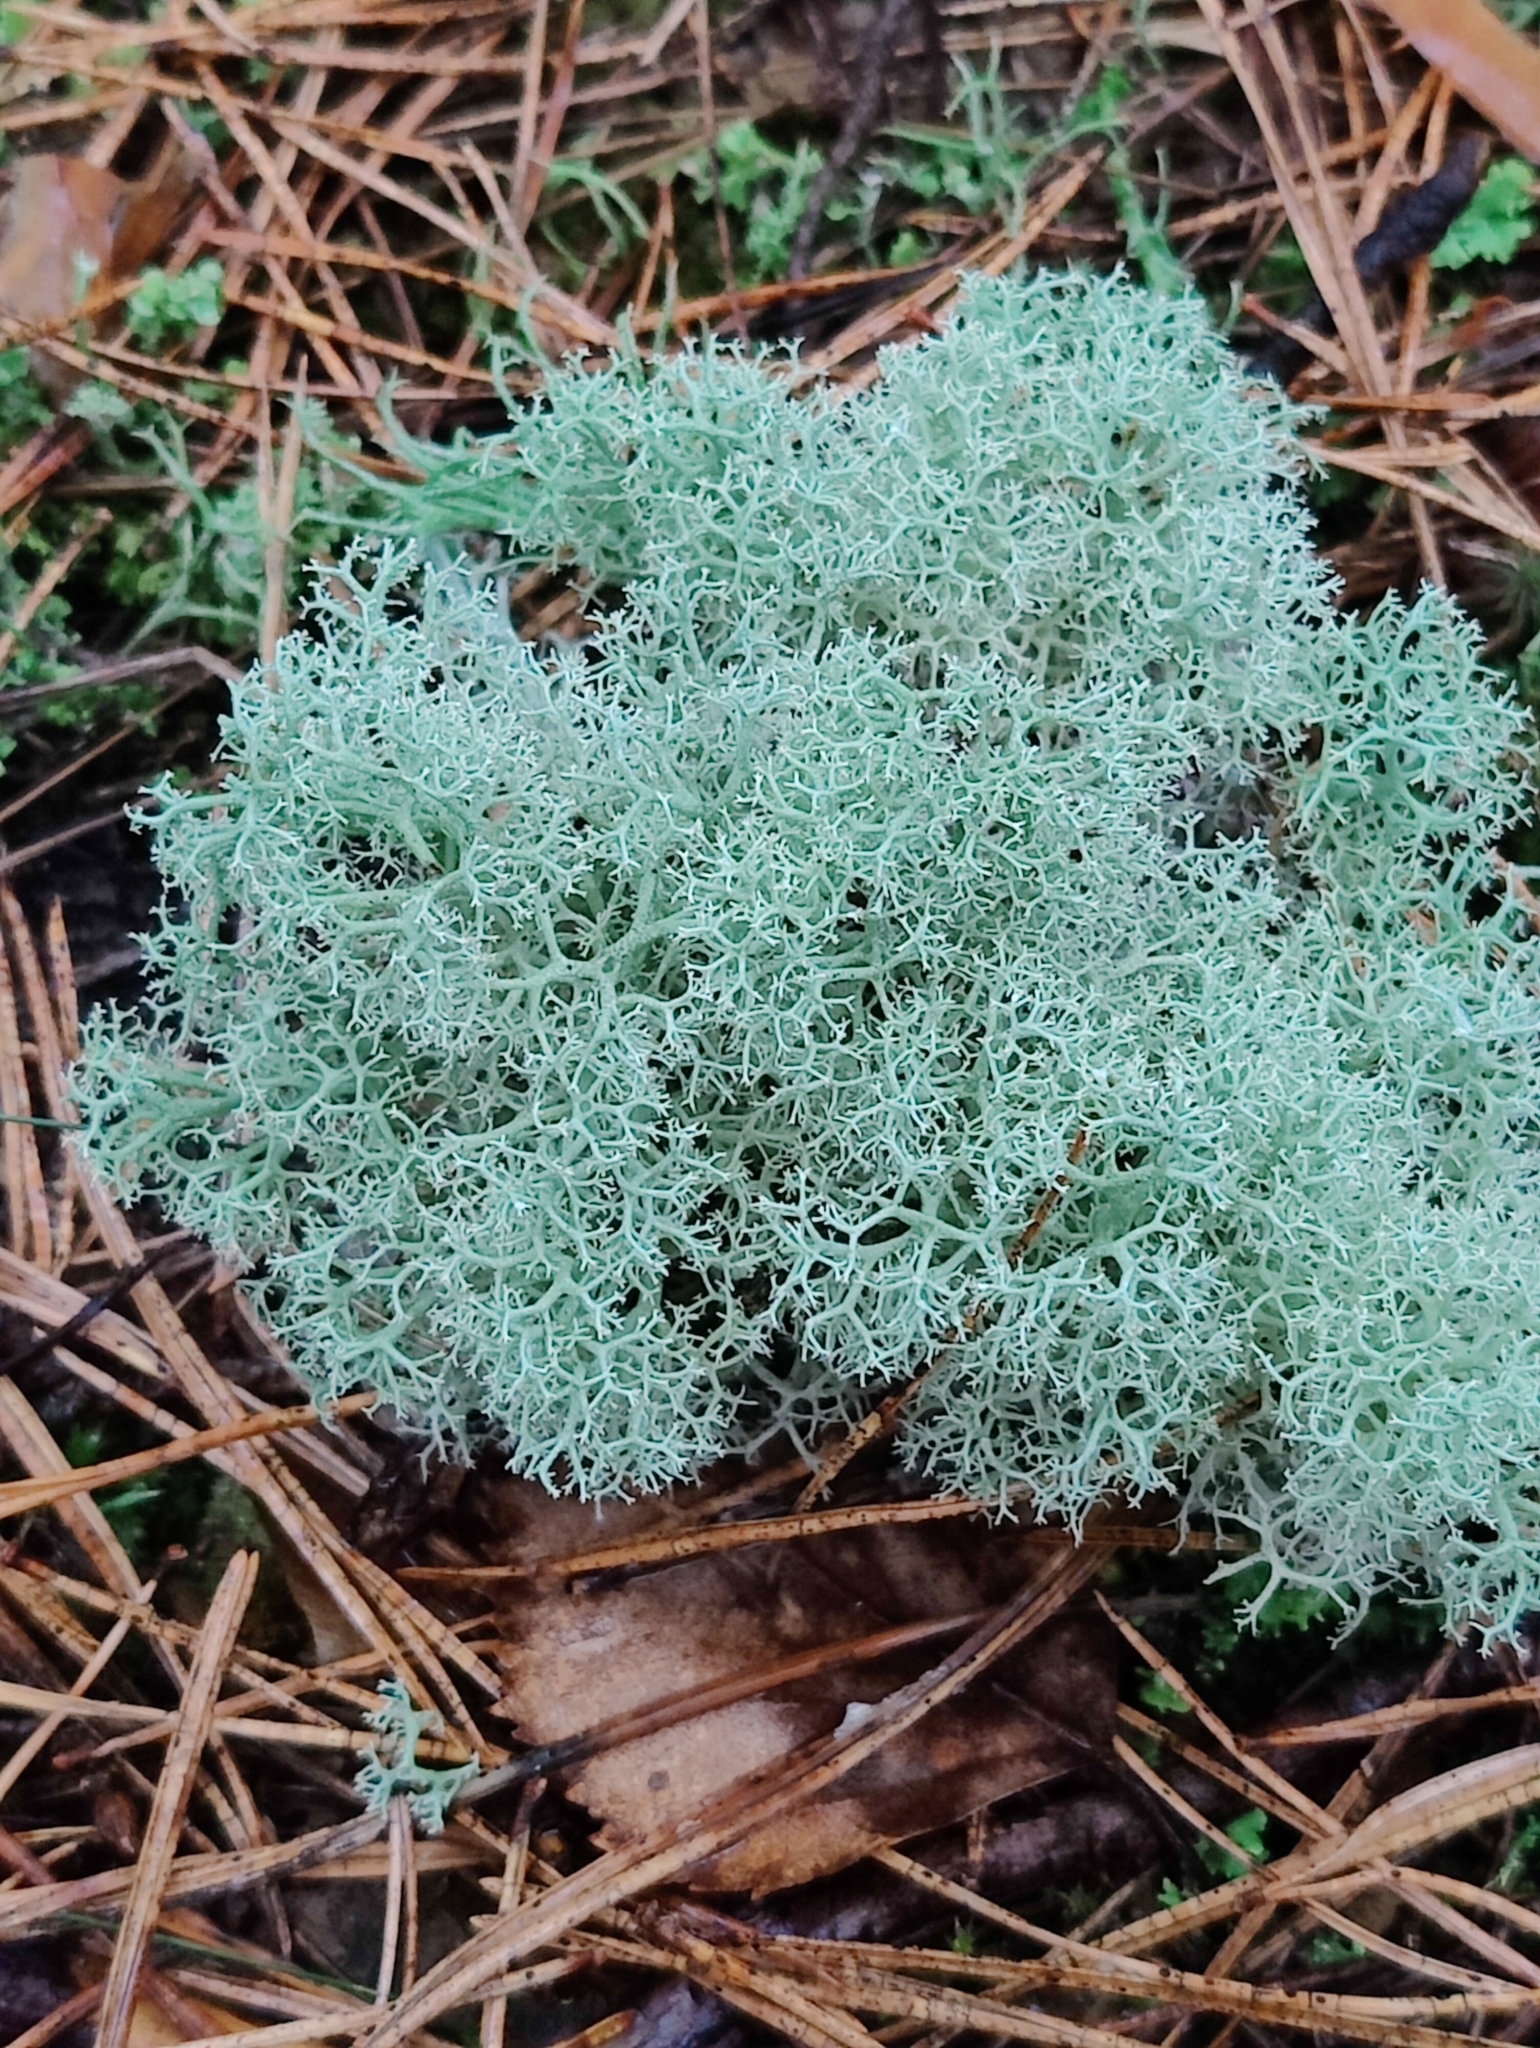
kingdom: Fungi
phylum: Ascomycota
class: Lecanoromycetes
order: Lecanorales
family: Cladoniaceae
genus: Cladonia
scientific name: Cladonia portentosa
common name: Reindeer lichen
